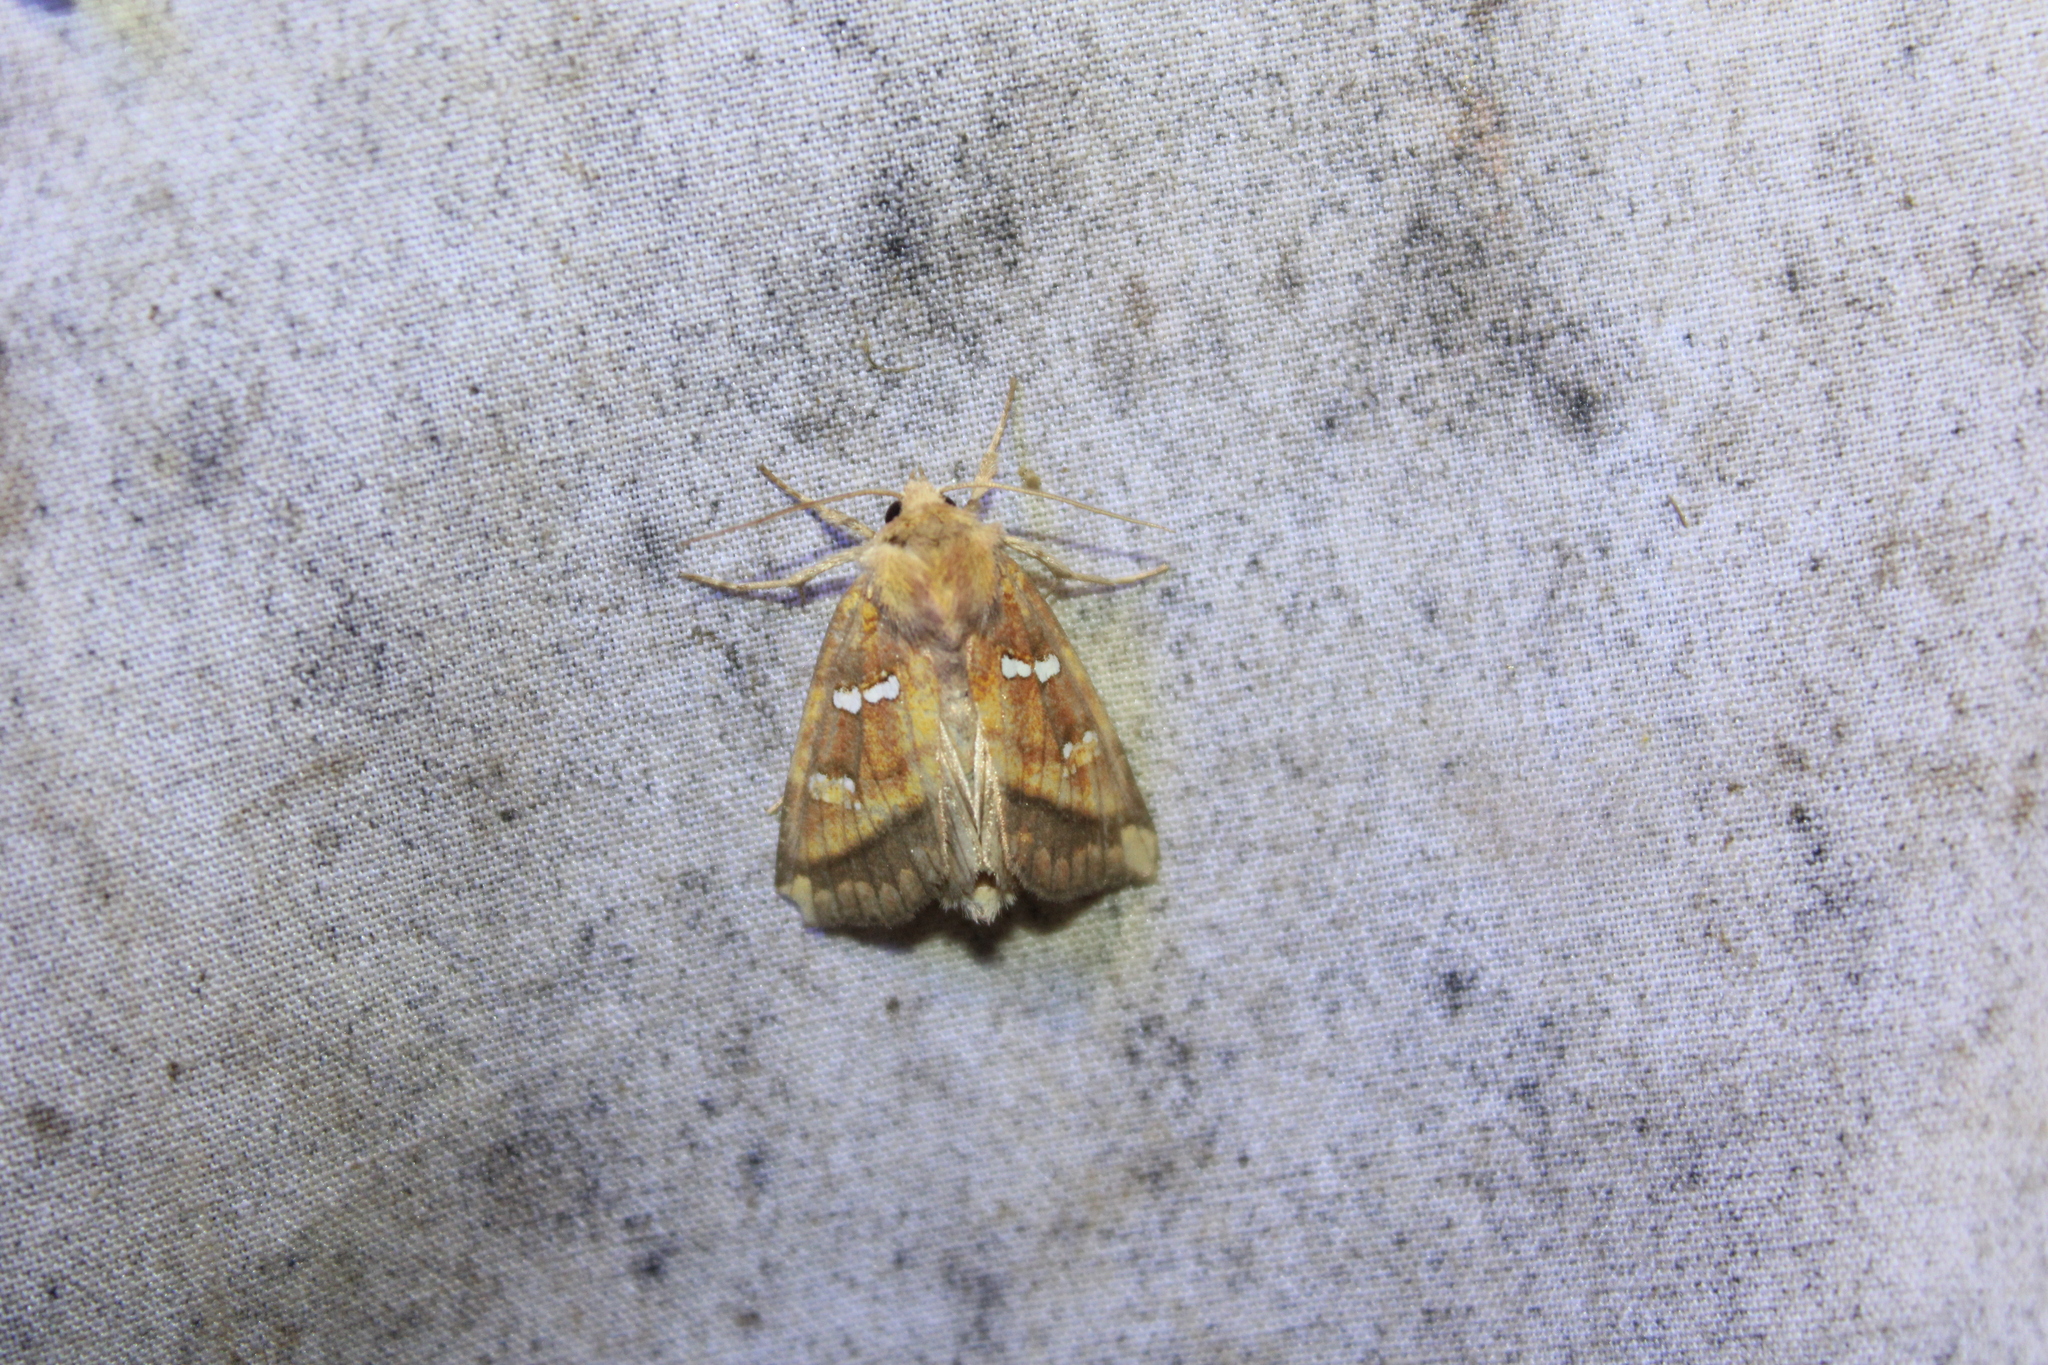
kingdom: Animalia
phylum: Arthropoda
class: Insecta
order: Lepidoptera
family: Noctuidae
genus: Papaipema
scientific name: Papaipema pterisii
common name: Bracken borer moth
